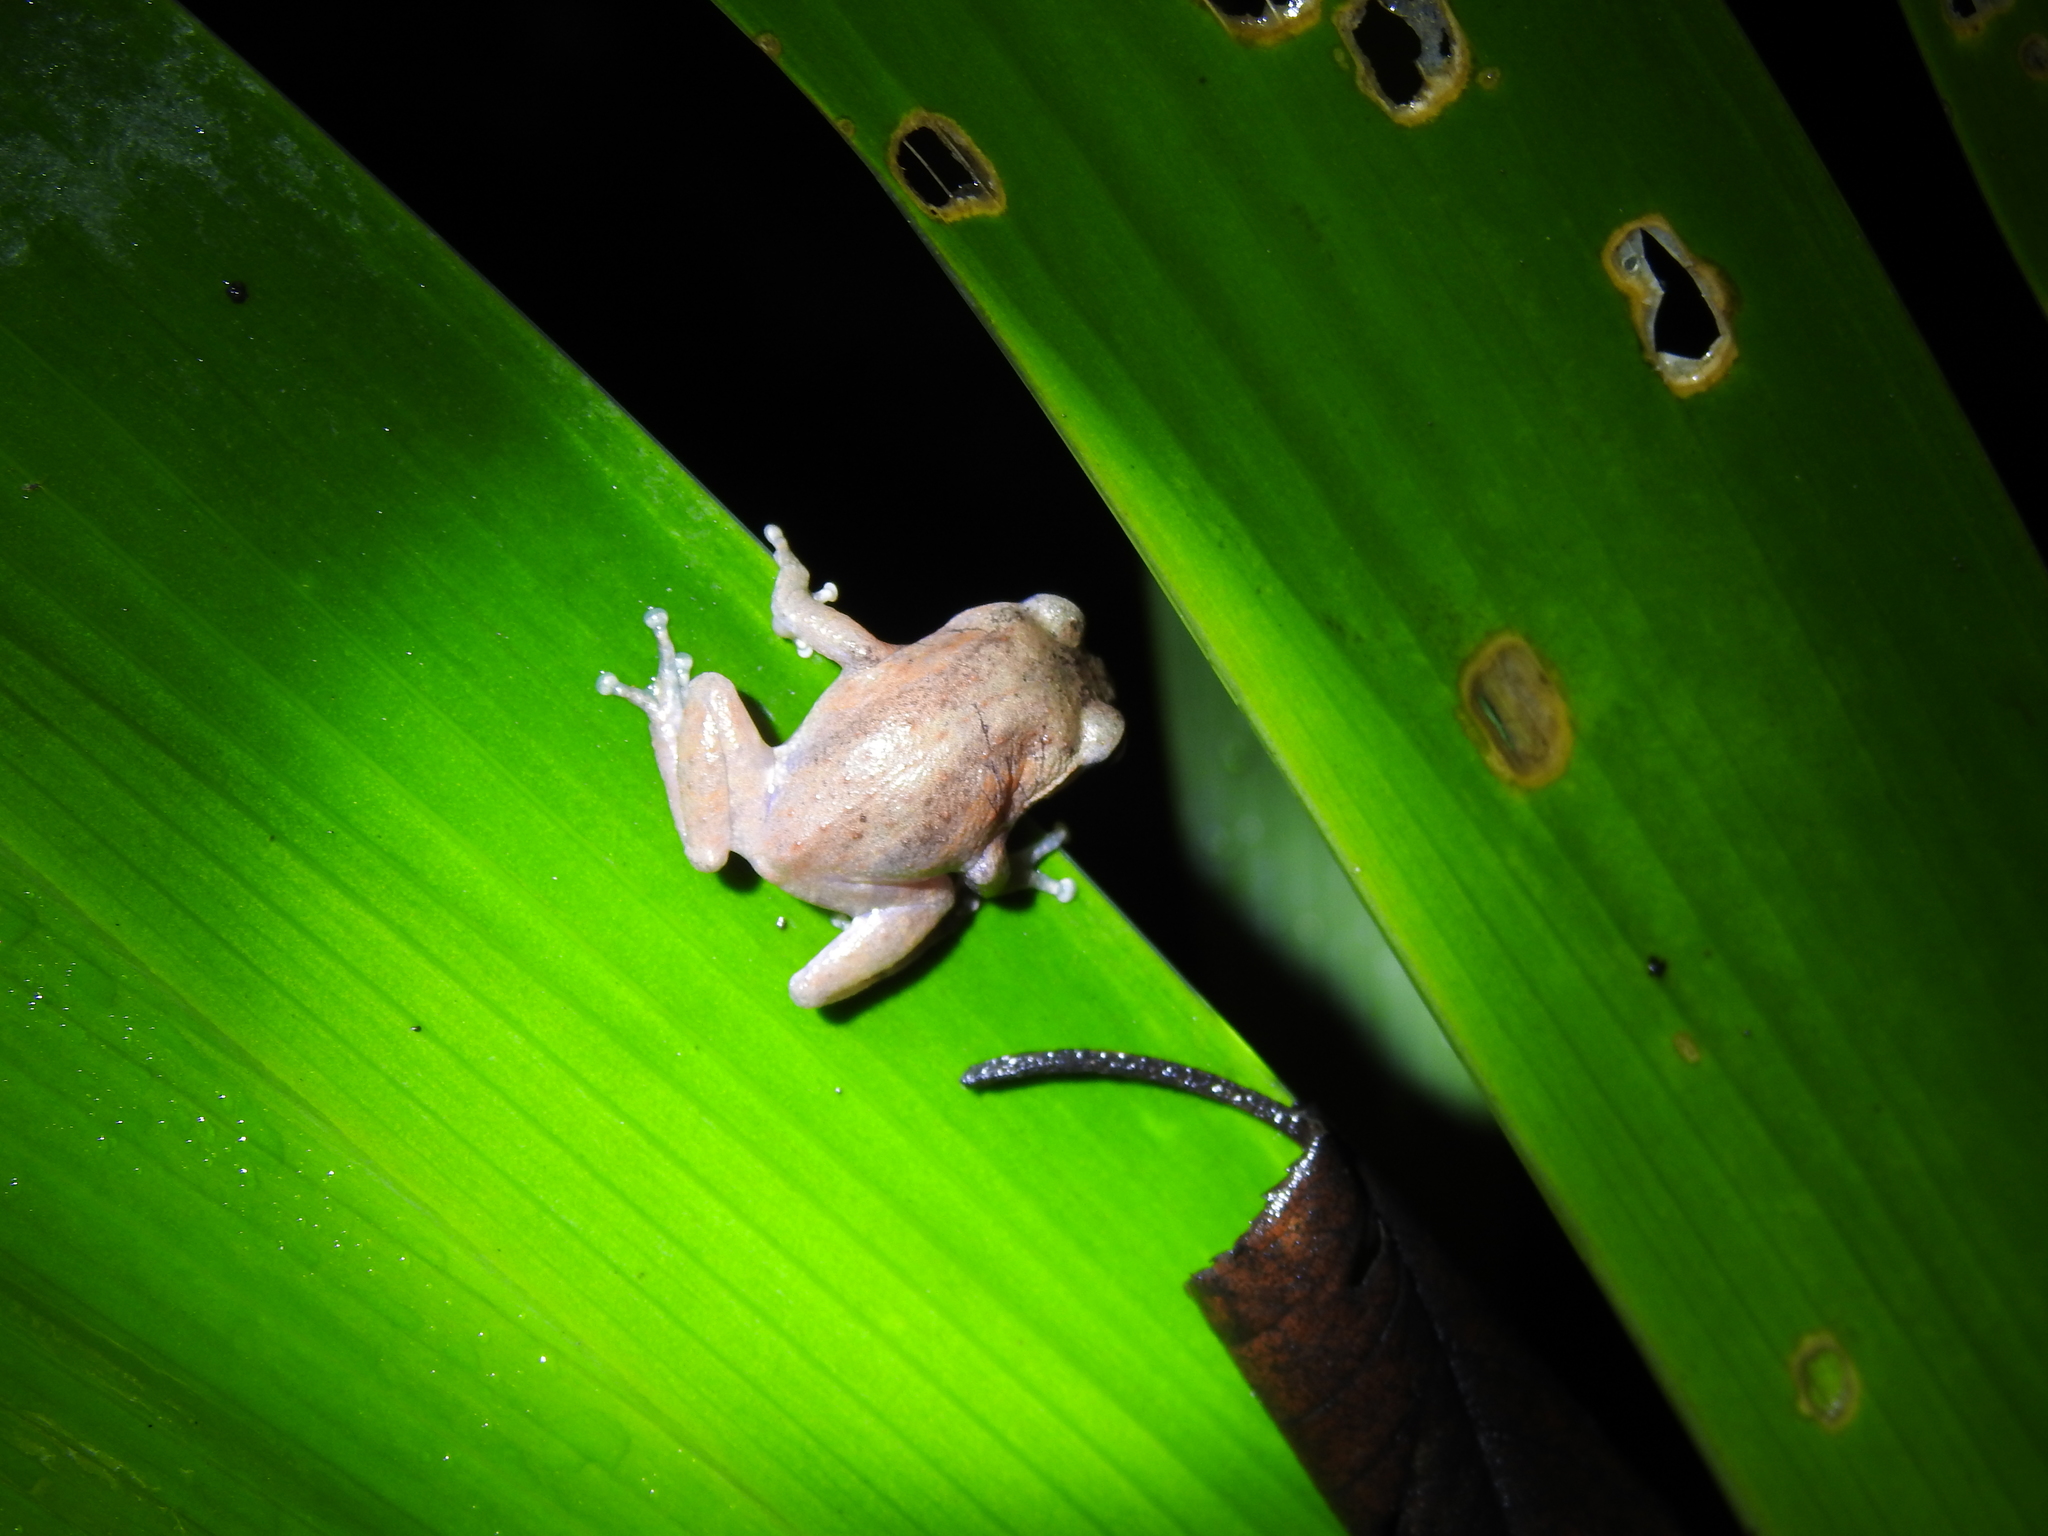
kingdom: Animalia
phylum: Chordata
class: Amphibia
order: Anura
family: Rhacophoridae
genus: Raorchestes
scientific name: Raorchestes dubois
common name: Koadaikanal bush frog
